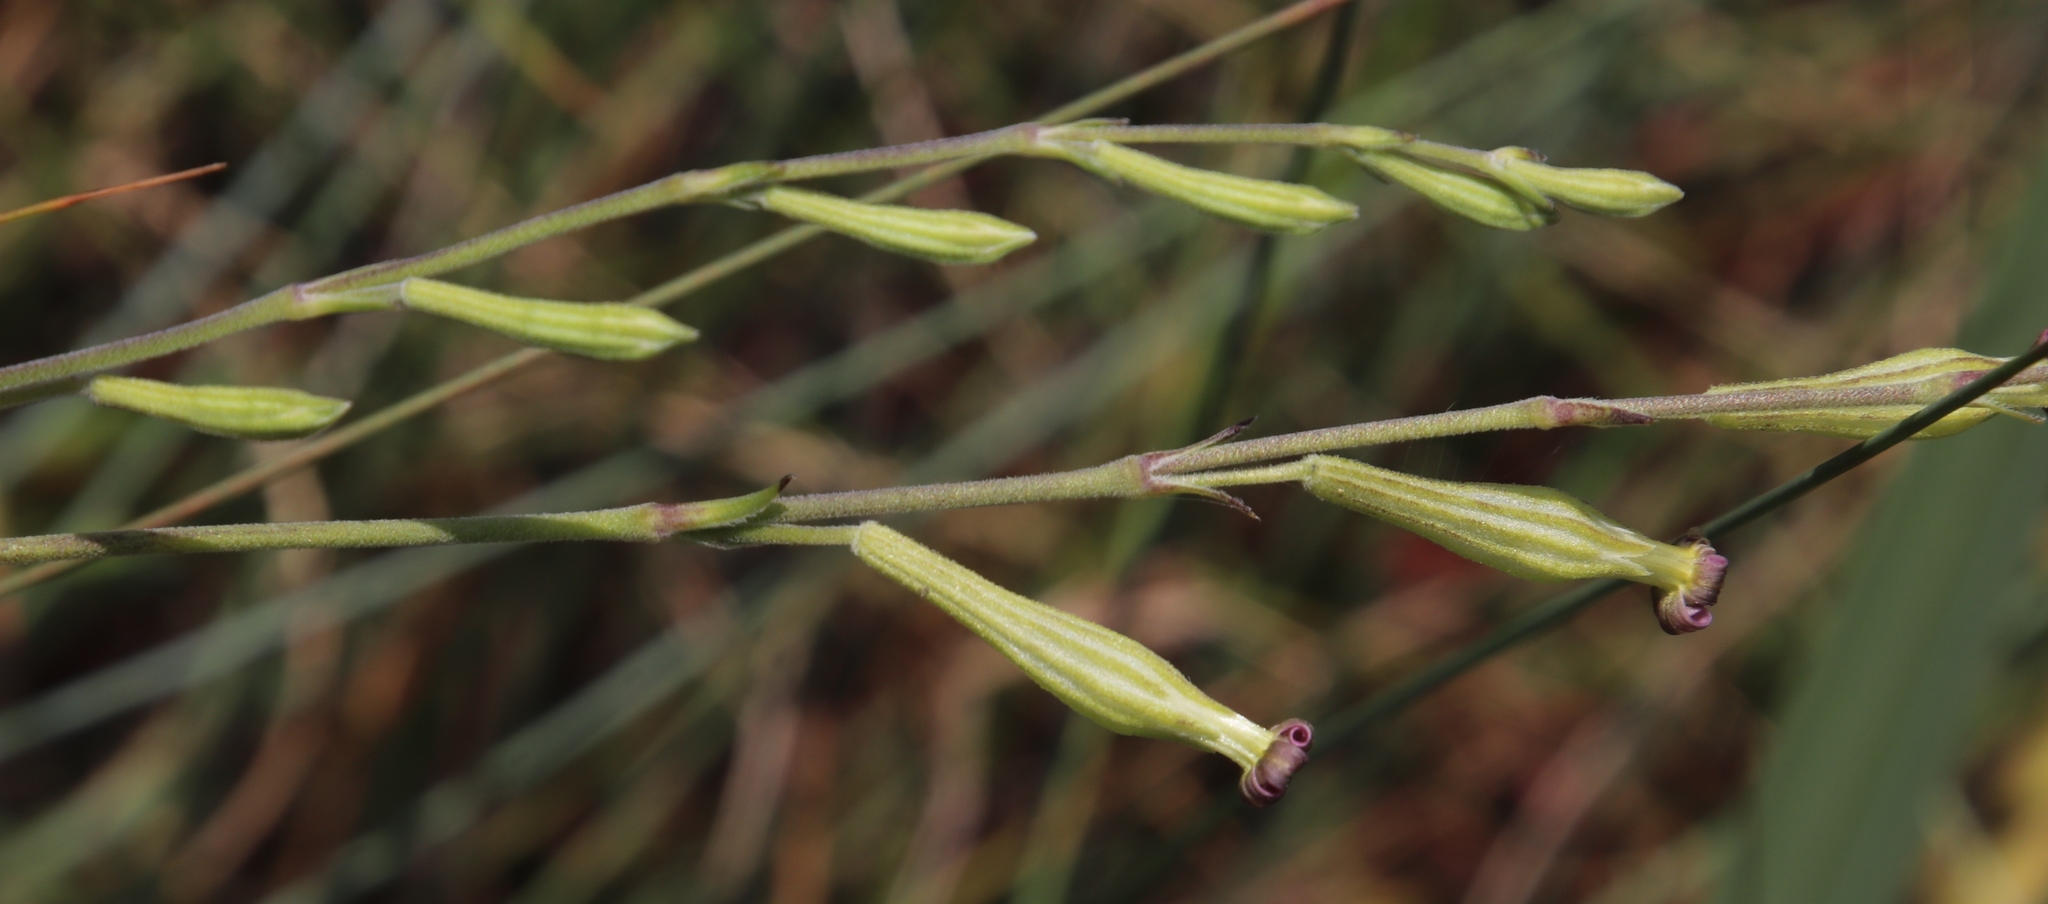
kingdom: Plantae
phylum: Tracheophyta
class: Magnoliopsida
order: Caryophyllales
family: Caryophyllaceae
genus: Silene
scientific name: Silene burchellii
